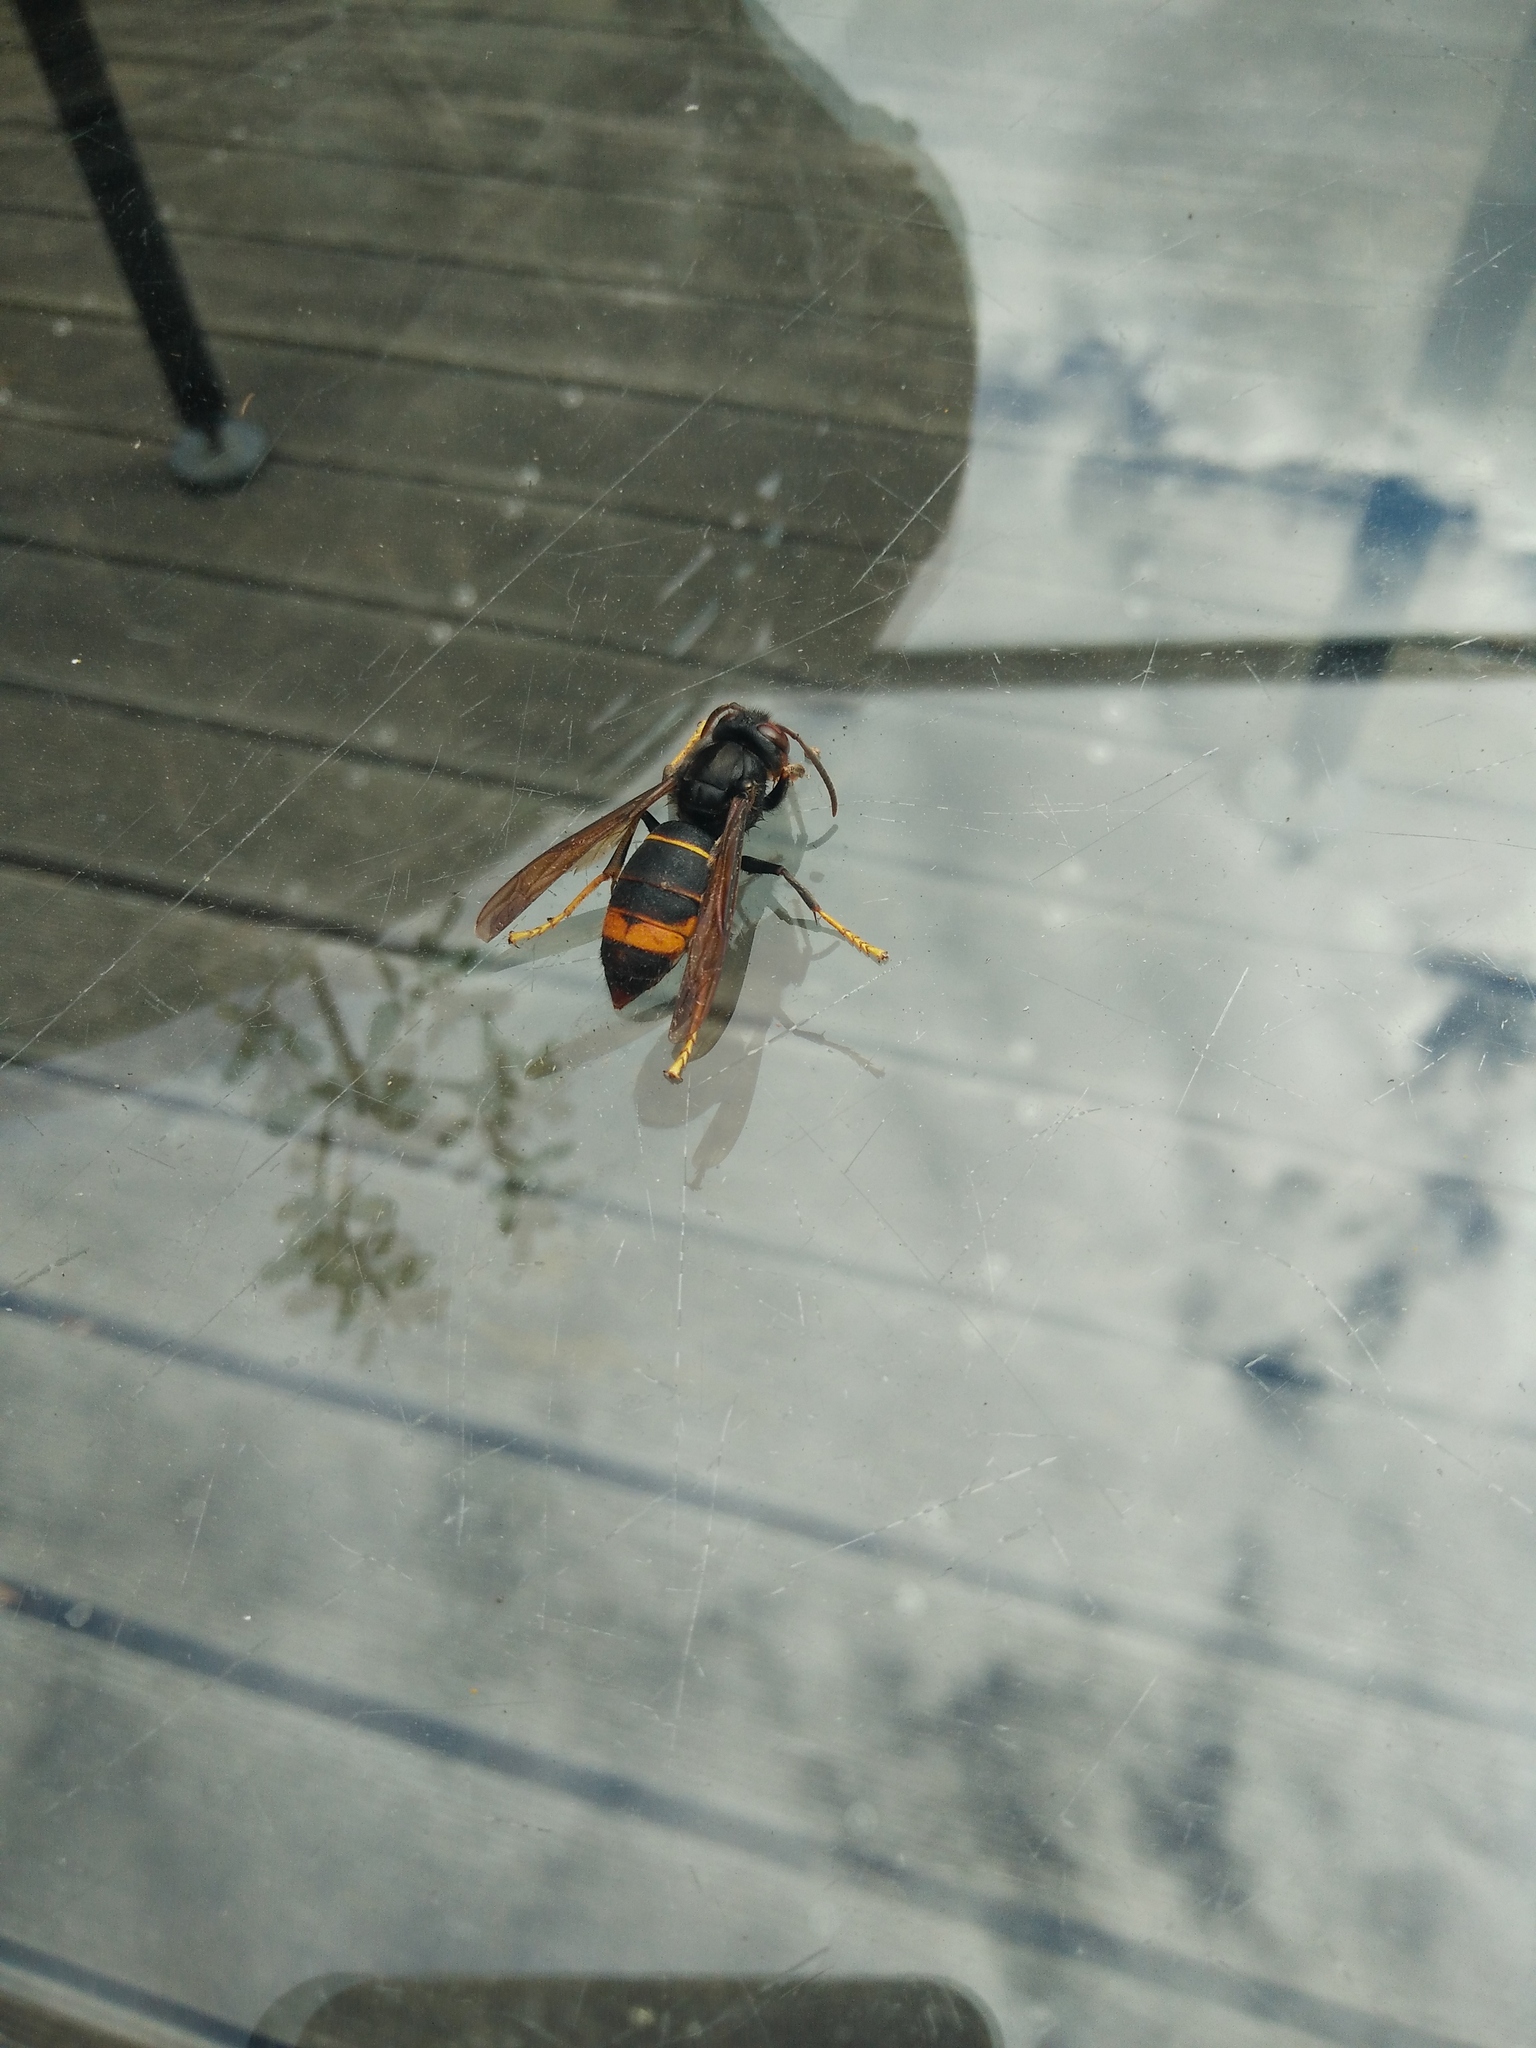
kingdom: Animalia
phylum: Arthropoda
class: Insecta
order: Hymenoptera
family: Vespidae
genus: Vespa
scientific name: Vespa velutina
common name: Asian hornet
